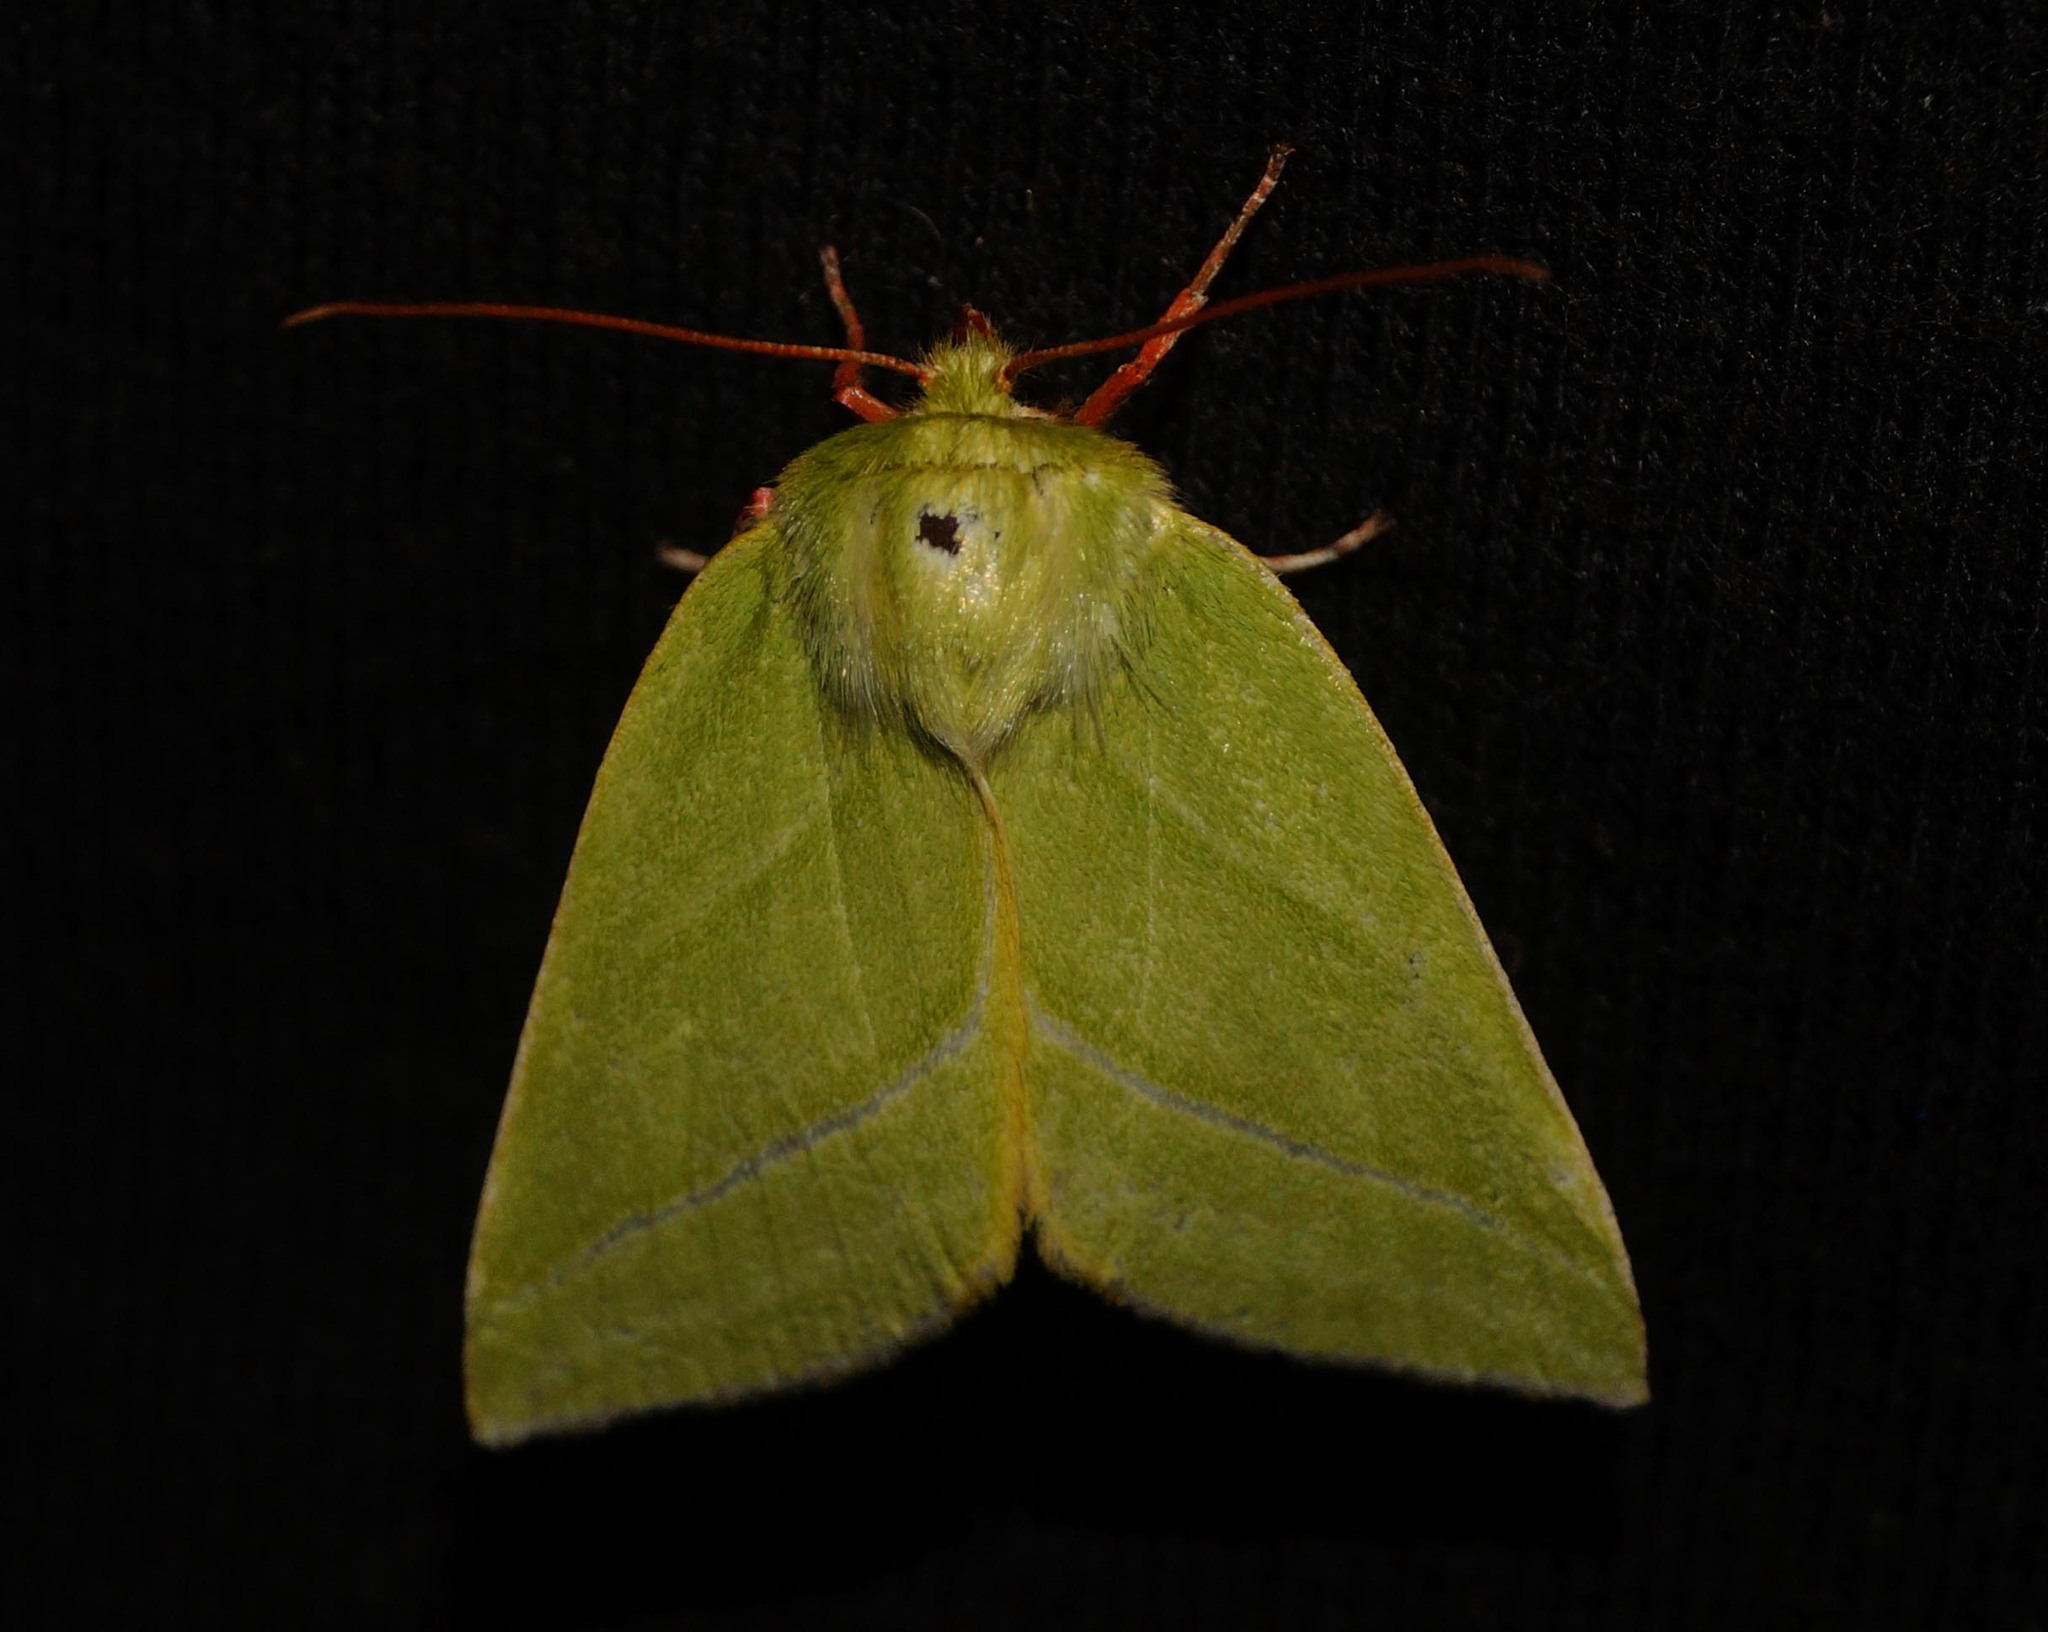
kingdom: Animalia
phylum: Arthropoda
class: Insecta
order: Lepidoptera
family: Nolidae
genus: Pseudoips
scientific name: Pseudoips prasinana
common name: Green silver-lines
